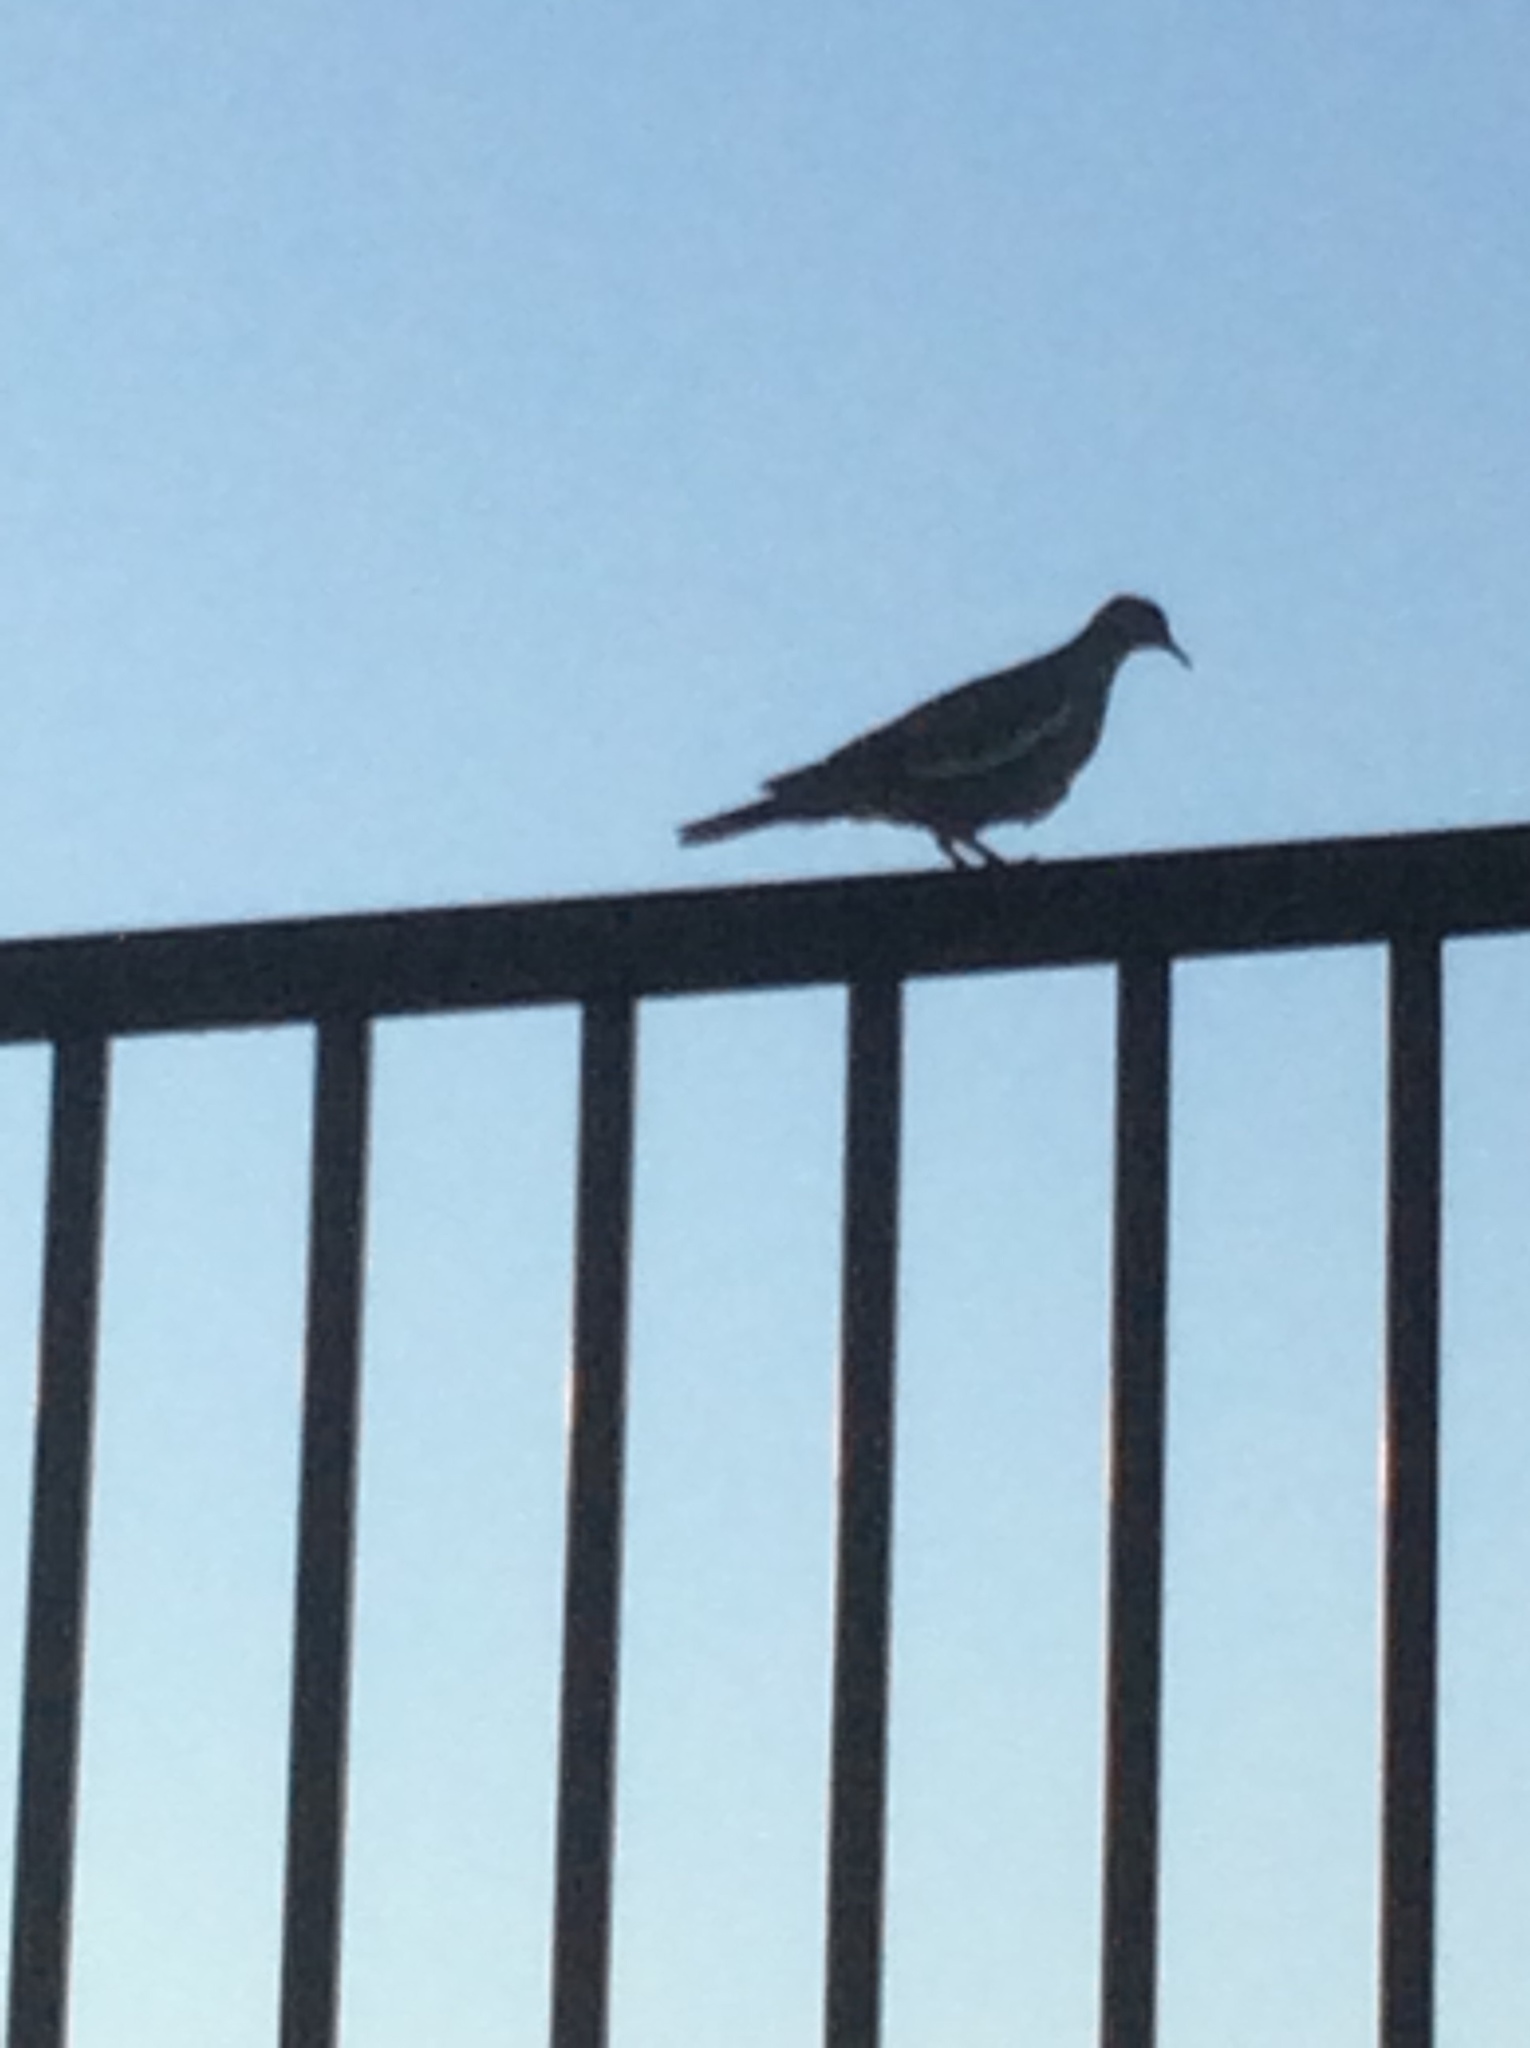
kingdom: Animalia
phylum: Chordata
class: Aves
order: Columbiformes
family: Columbidae
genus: Zenaida
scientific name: Zenaida asiatica
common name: White-winged dove
